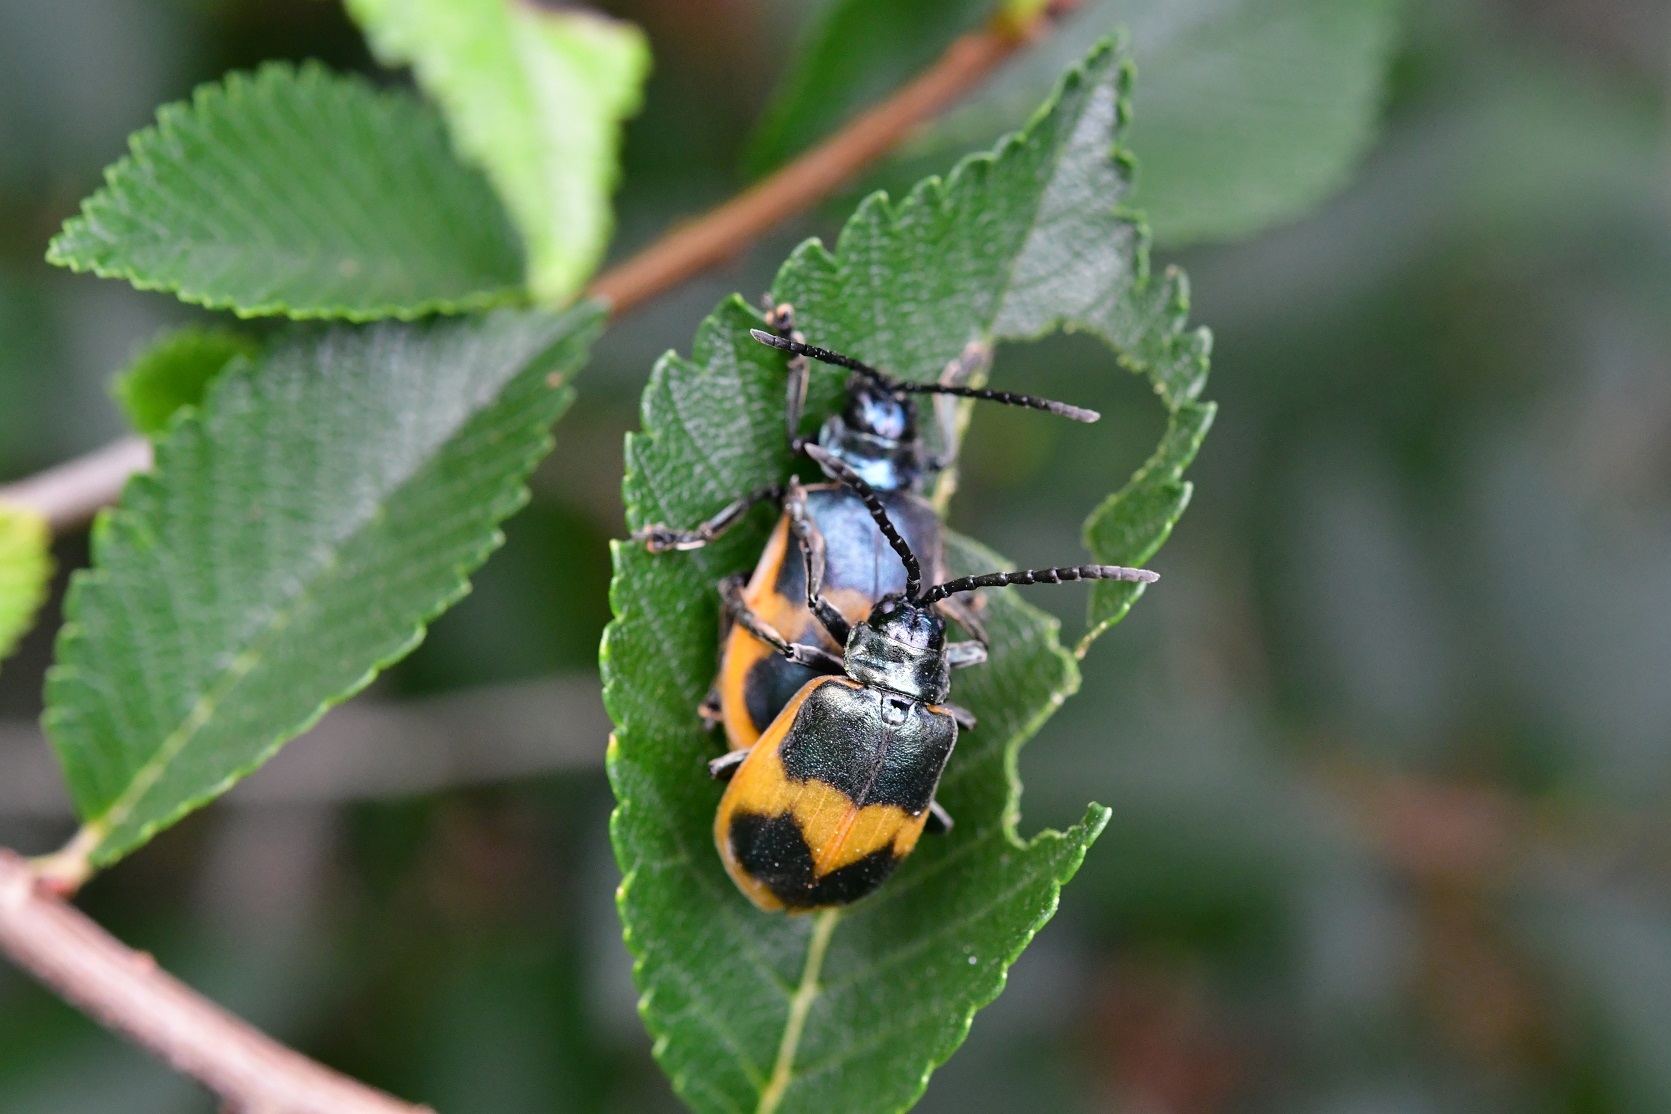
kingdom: Animalia
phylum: Arthropoda
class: Insecta
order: Coleoptera
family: Chrysomelidae
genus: Monocesta
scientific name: Monocesta
